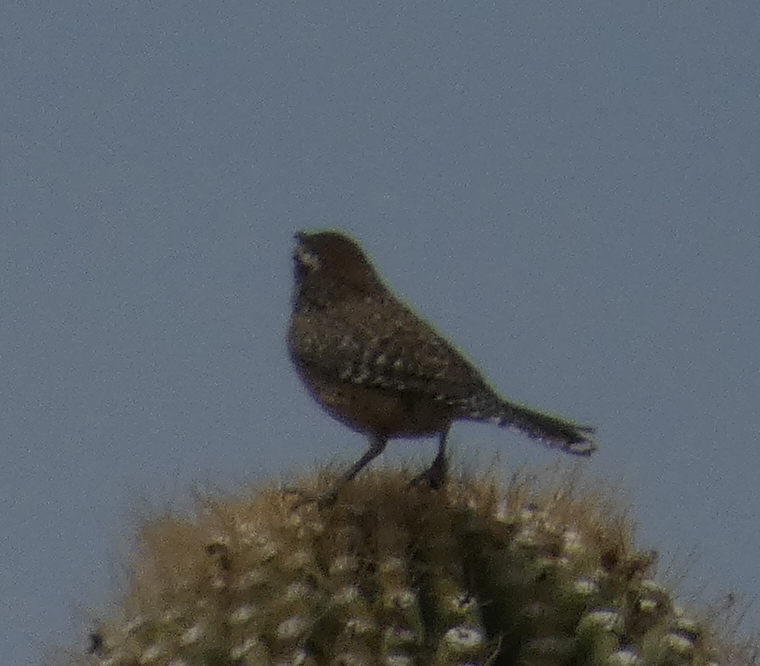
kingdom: Animalia
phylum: Chordata
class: Aves
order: Passeriformes
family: Troglodytidae
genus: Campylorhynchus
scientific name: Campylorhynchus brunneicapillus
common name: Cactus wren
